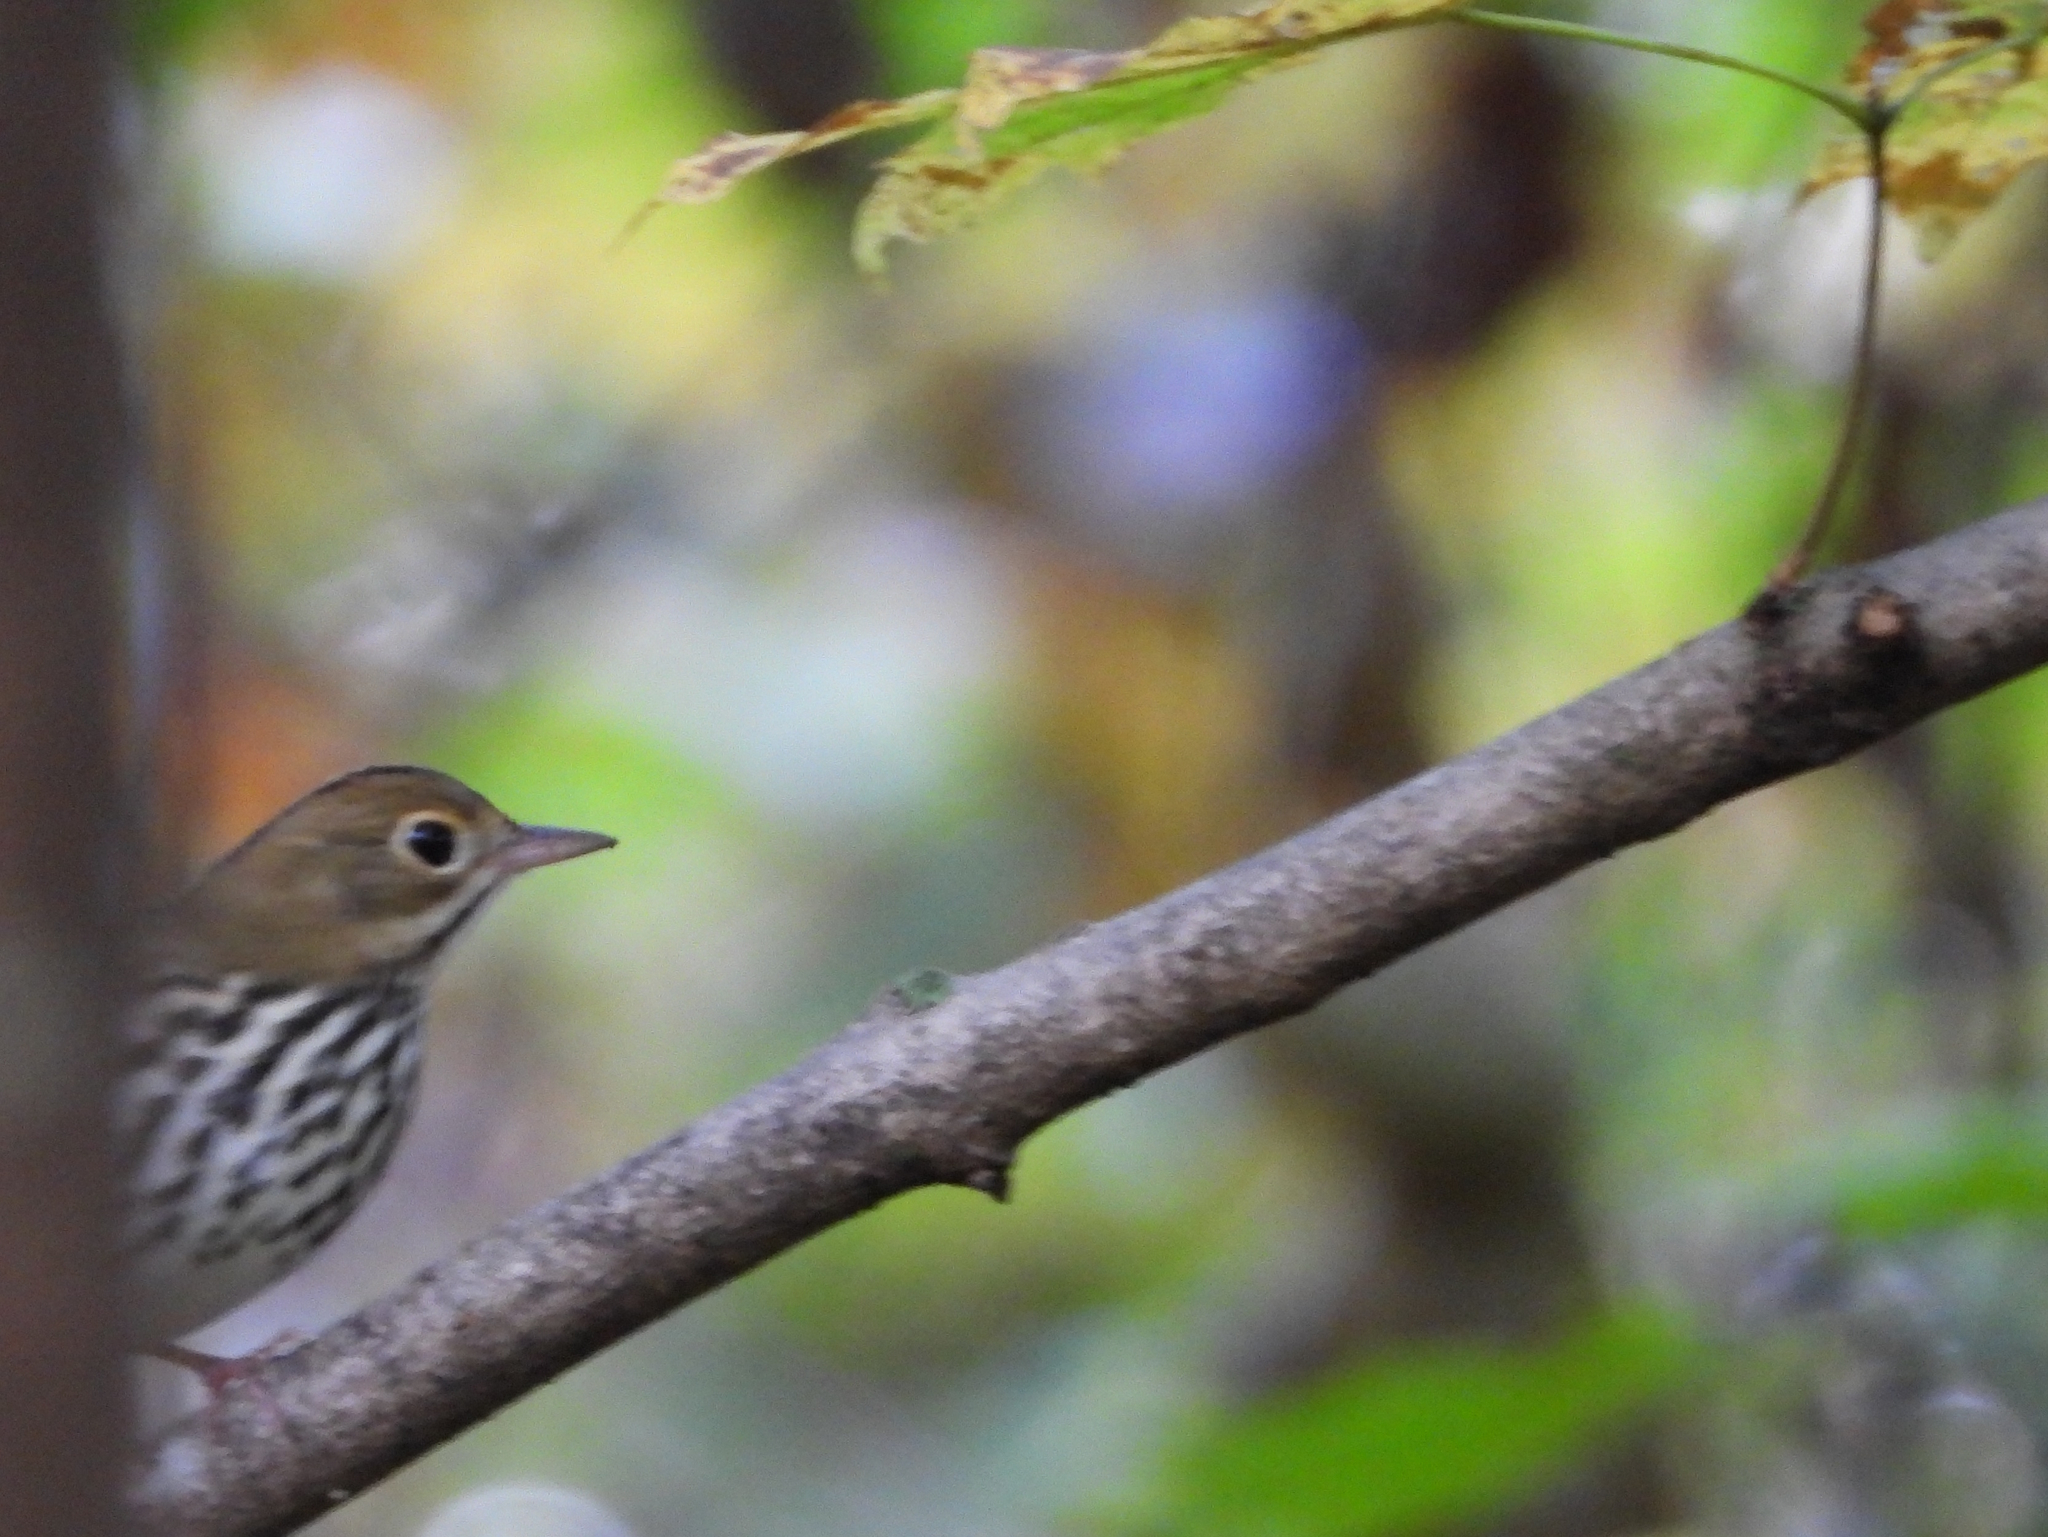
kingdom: Animalia
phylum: Chordata
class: Aves
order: Passeriformes
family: Parulidae
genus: Seiurus
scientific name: Seiurus aurocapilla
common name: Ovenbird
